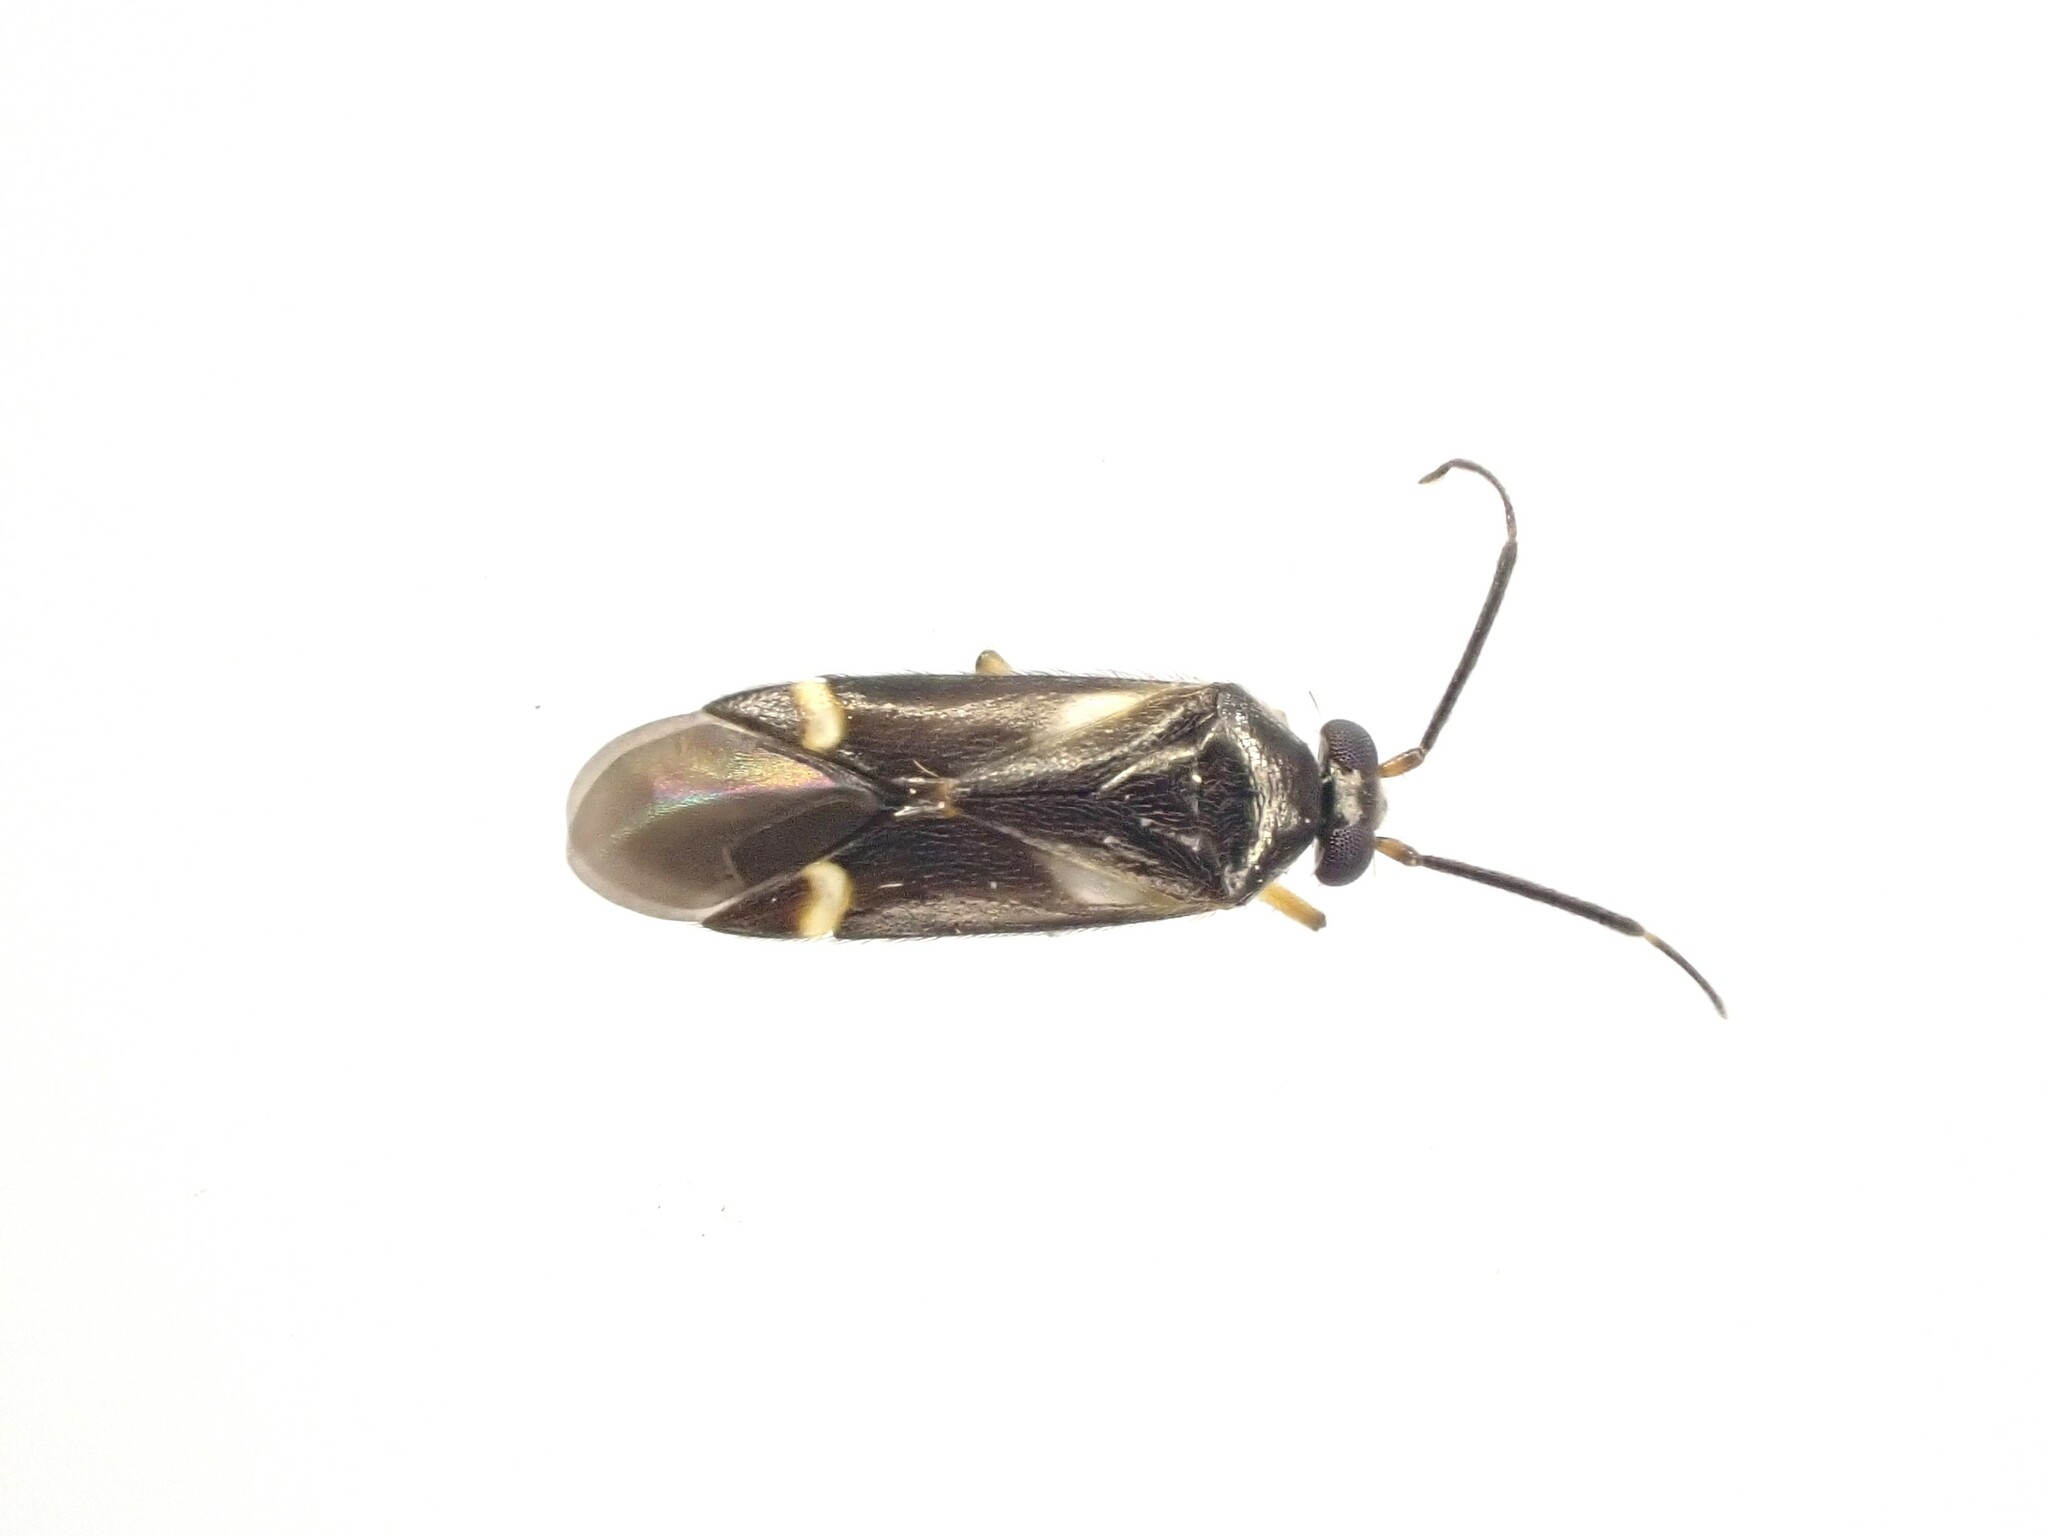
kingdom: Animalia
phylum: Arthropoda
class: Insecta
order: Hemiptera
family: Miridae
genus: Ausejanus
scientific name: Ausejanus albisignatus
